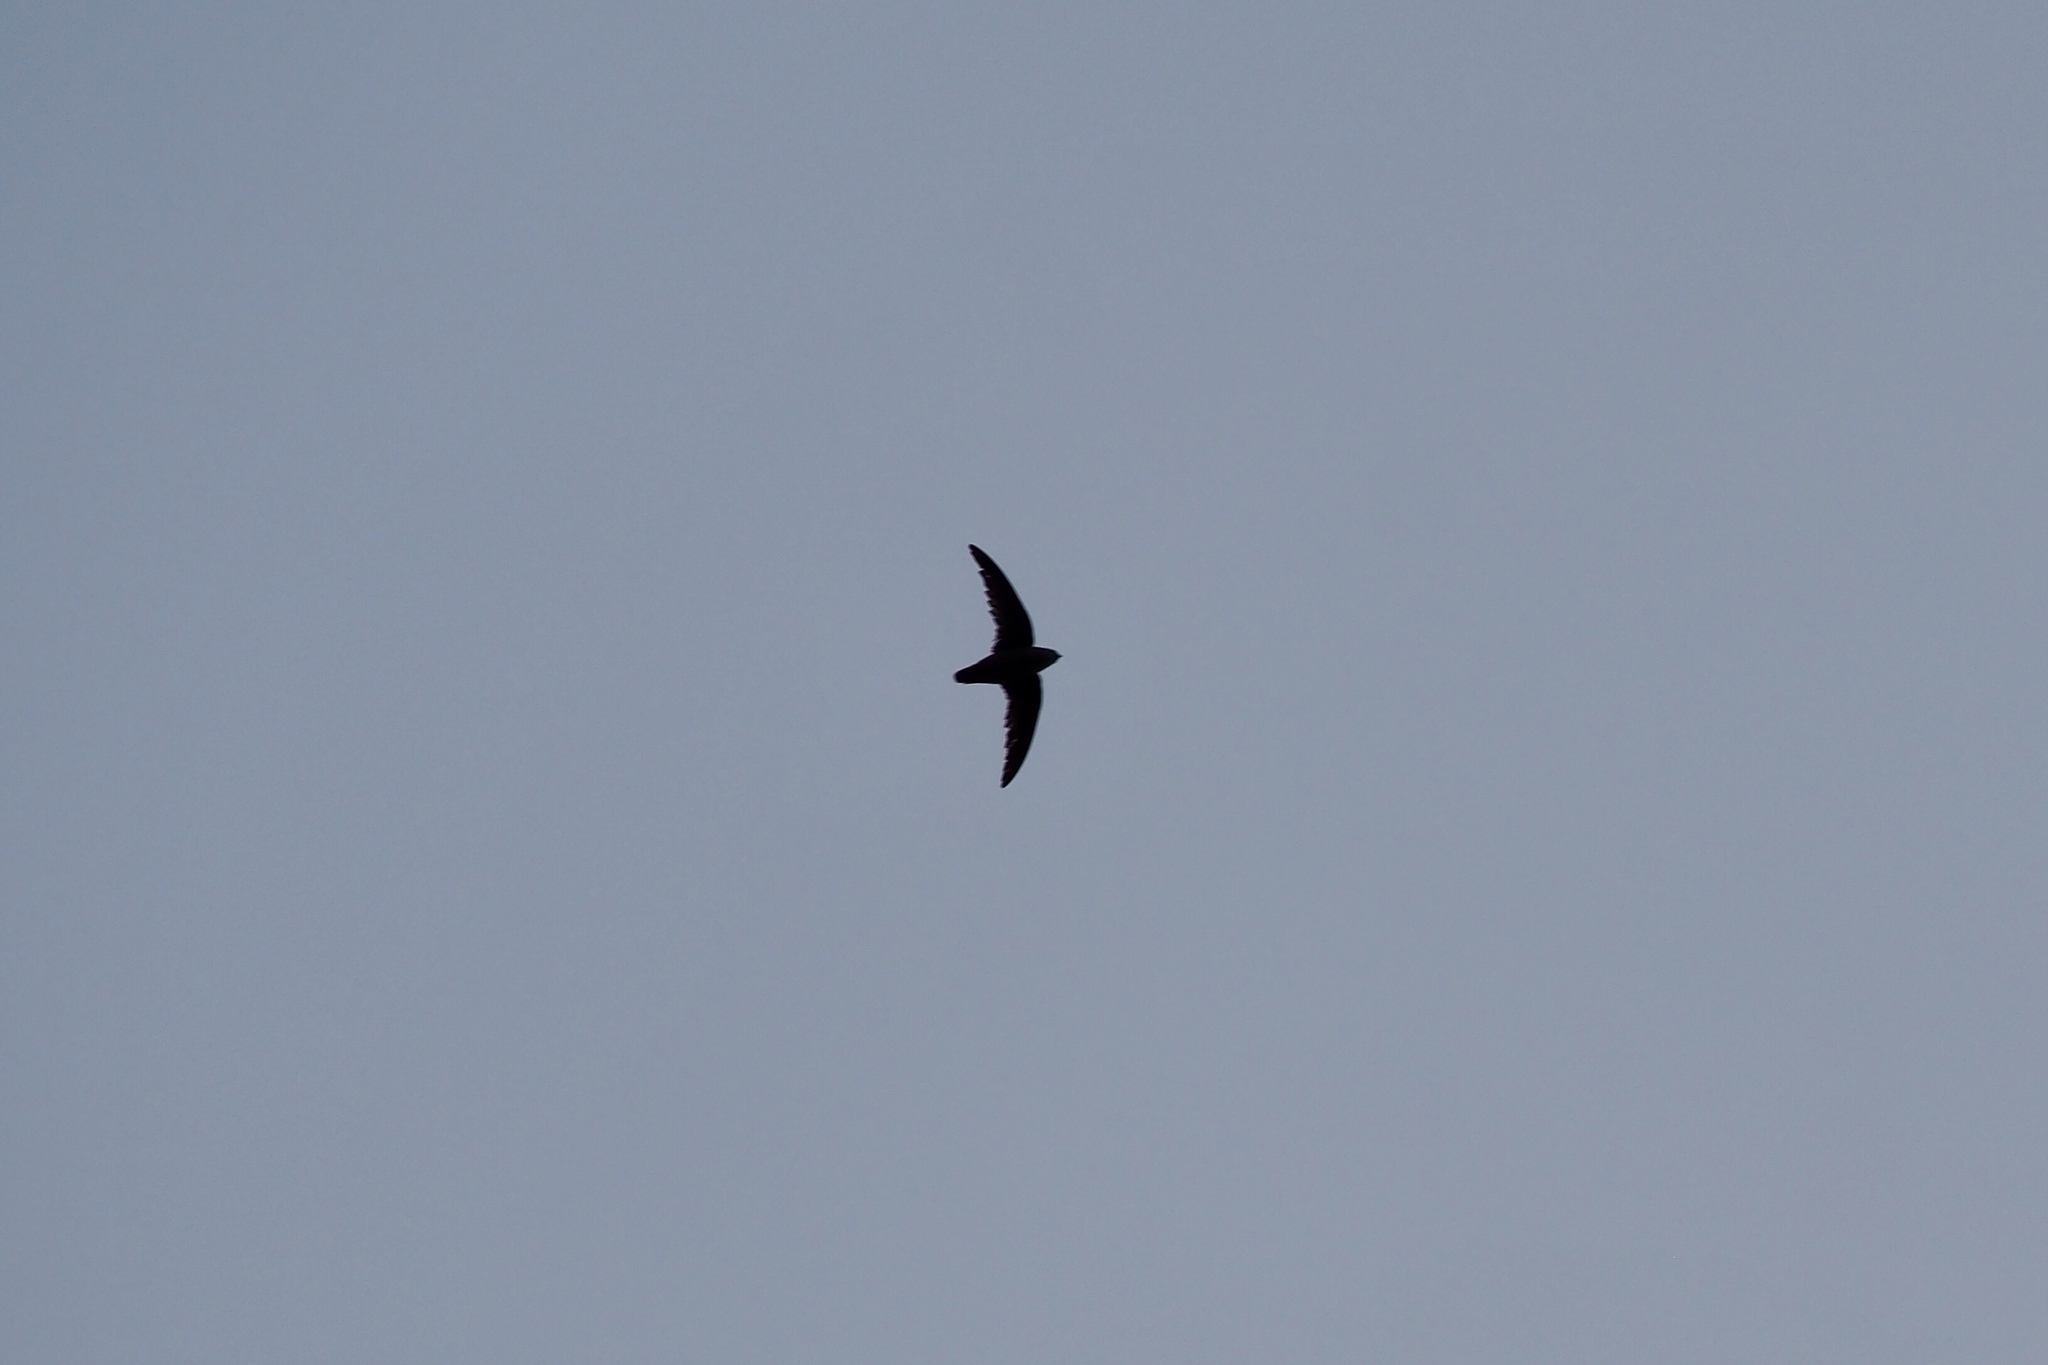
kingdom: Animalia
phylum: Chordata
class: Aves
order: Apodiformes
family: Apodidae
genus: Chaetura
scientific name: Chaetura vauxi
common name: Vaux's swift
